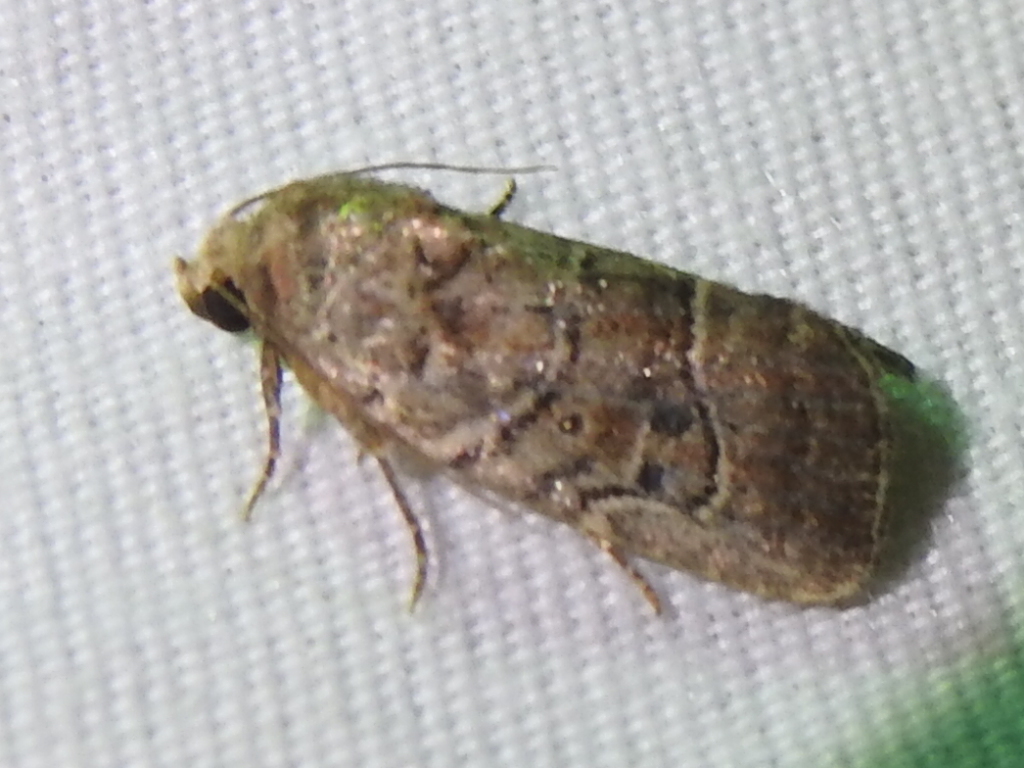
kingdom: Animalia
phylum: Arthropoda
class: Insecta
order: Lepidoptera
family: Noctuidae
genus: Elaphria
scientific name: Elaphria grata
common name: Grateful midget moth
